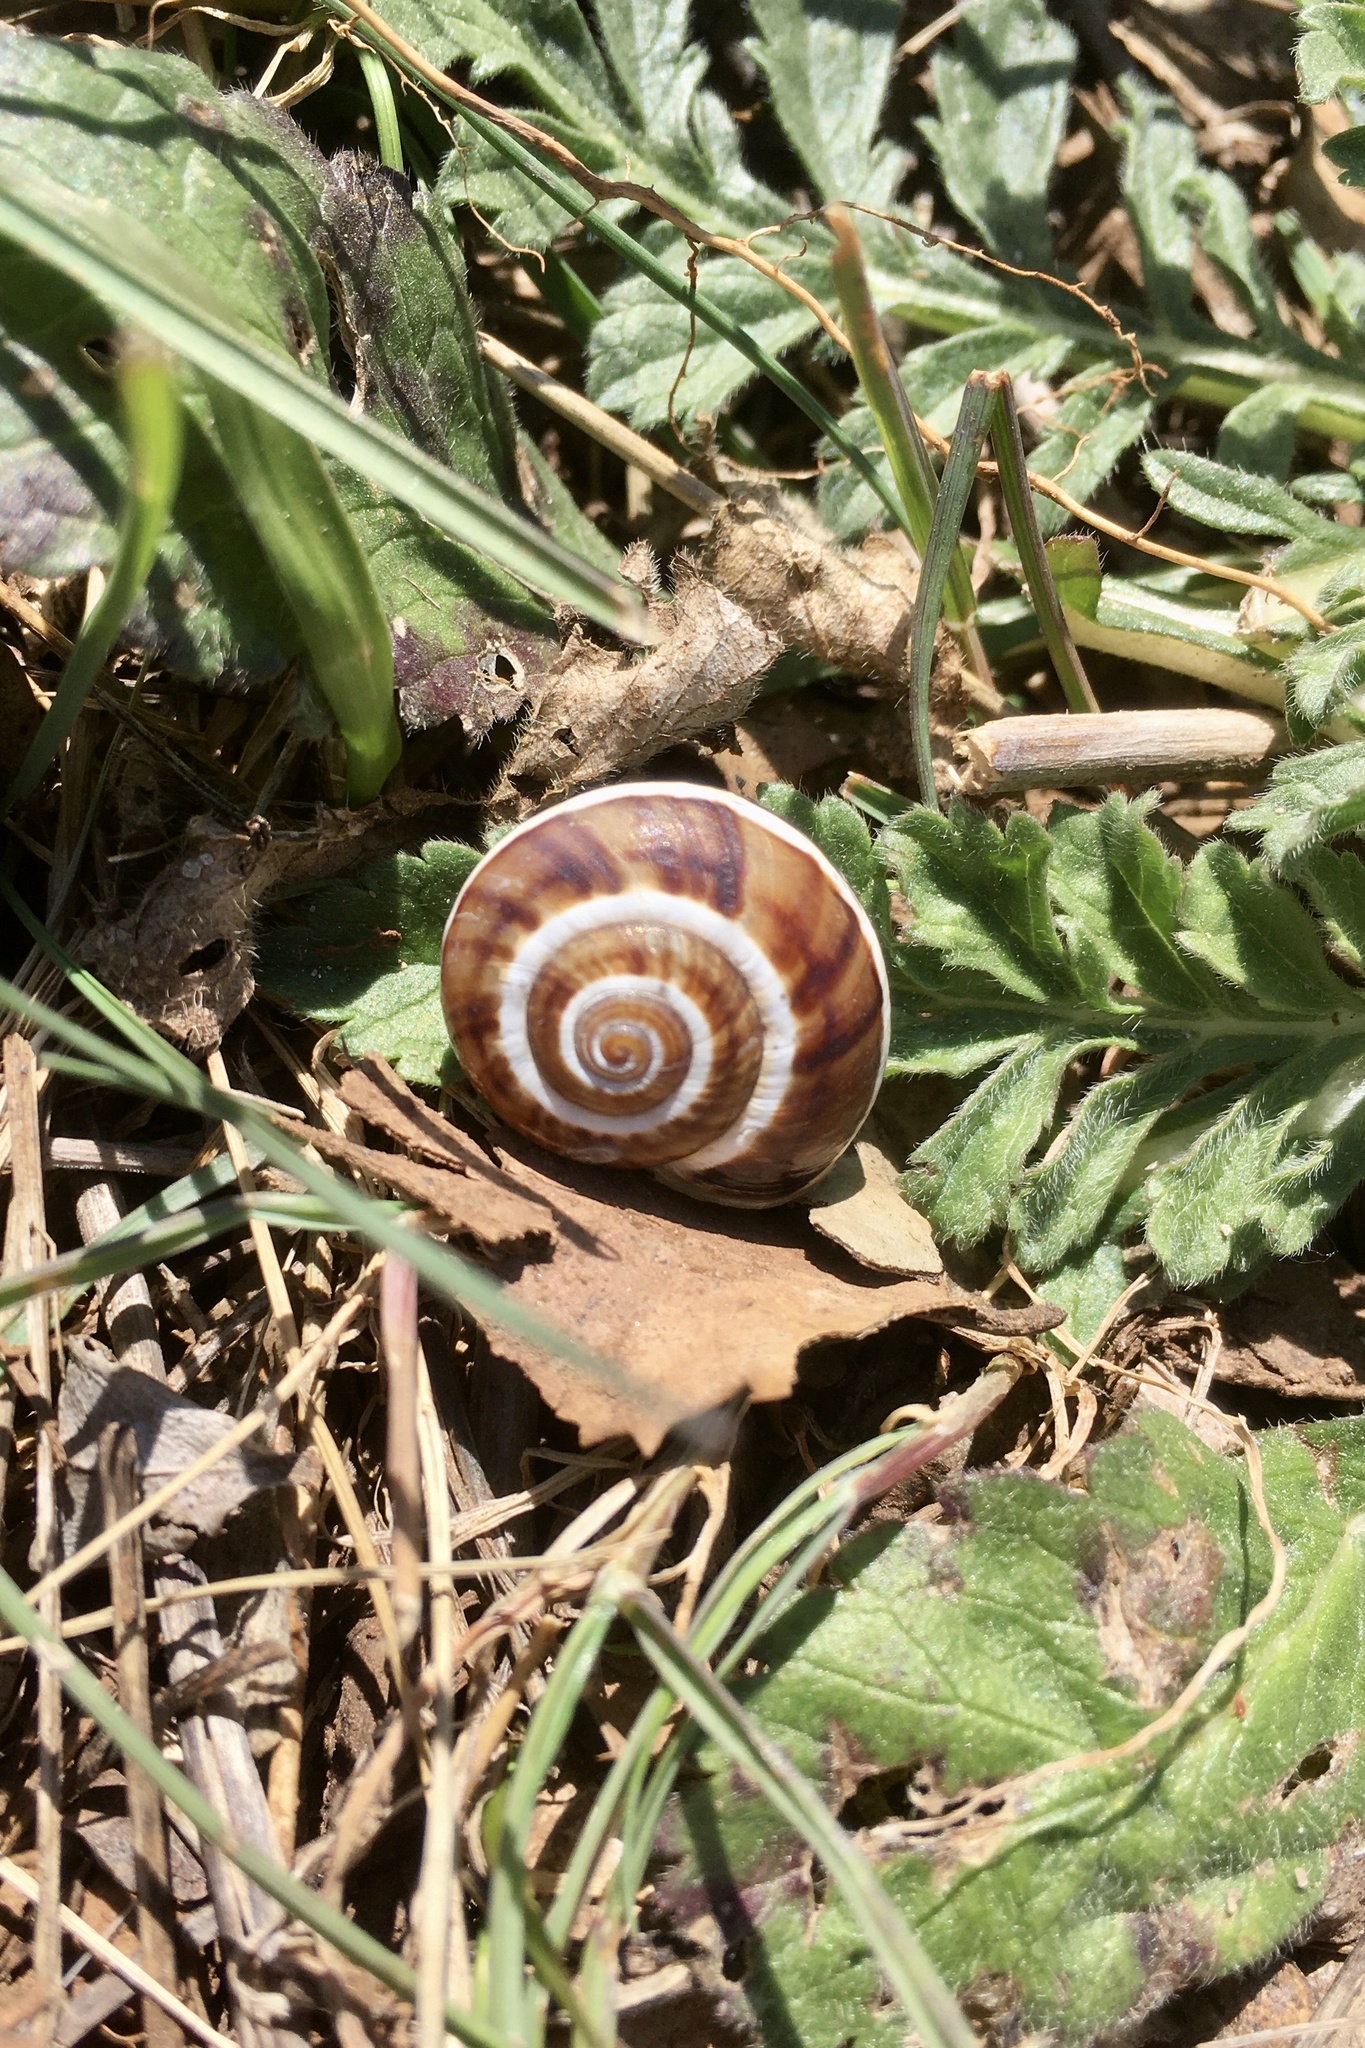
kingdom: Animalia
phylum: Mollusca
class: Gastropoda
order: Stylommatophora
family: Helicidae
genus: Pseudotachea
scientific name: Pseudotachea splendida
